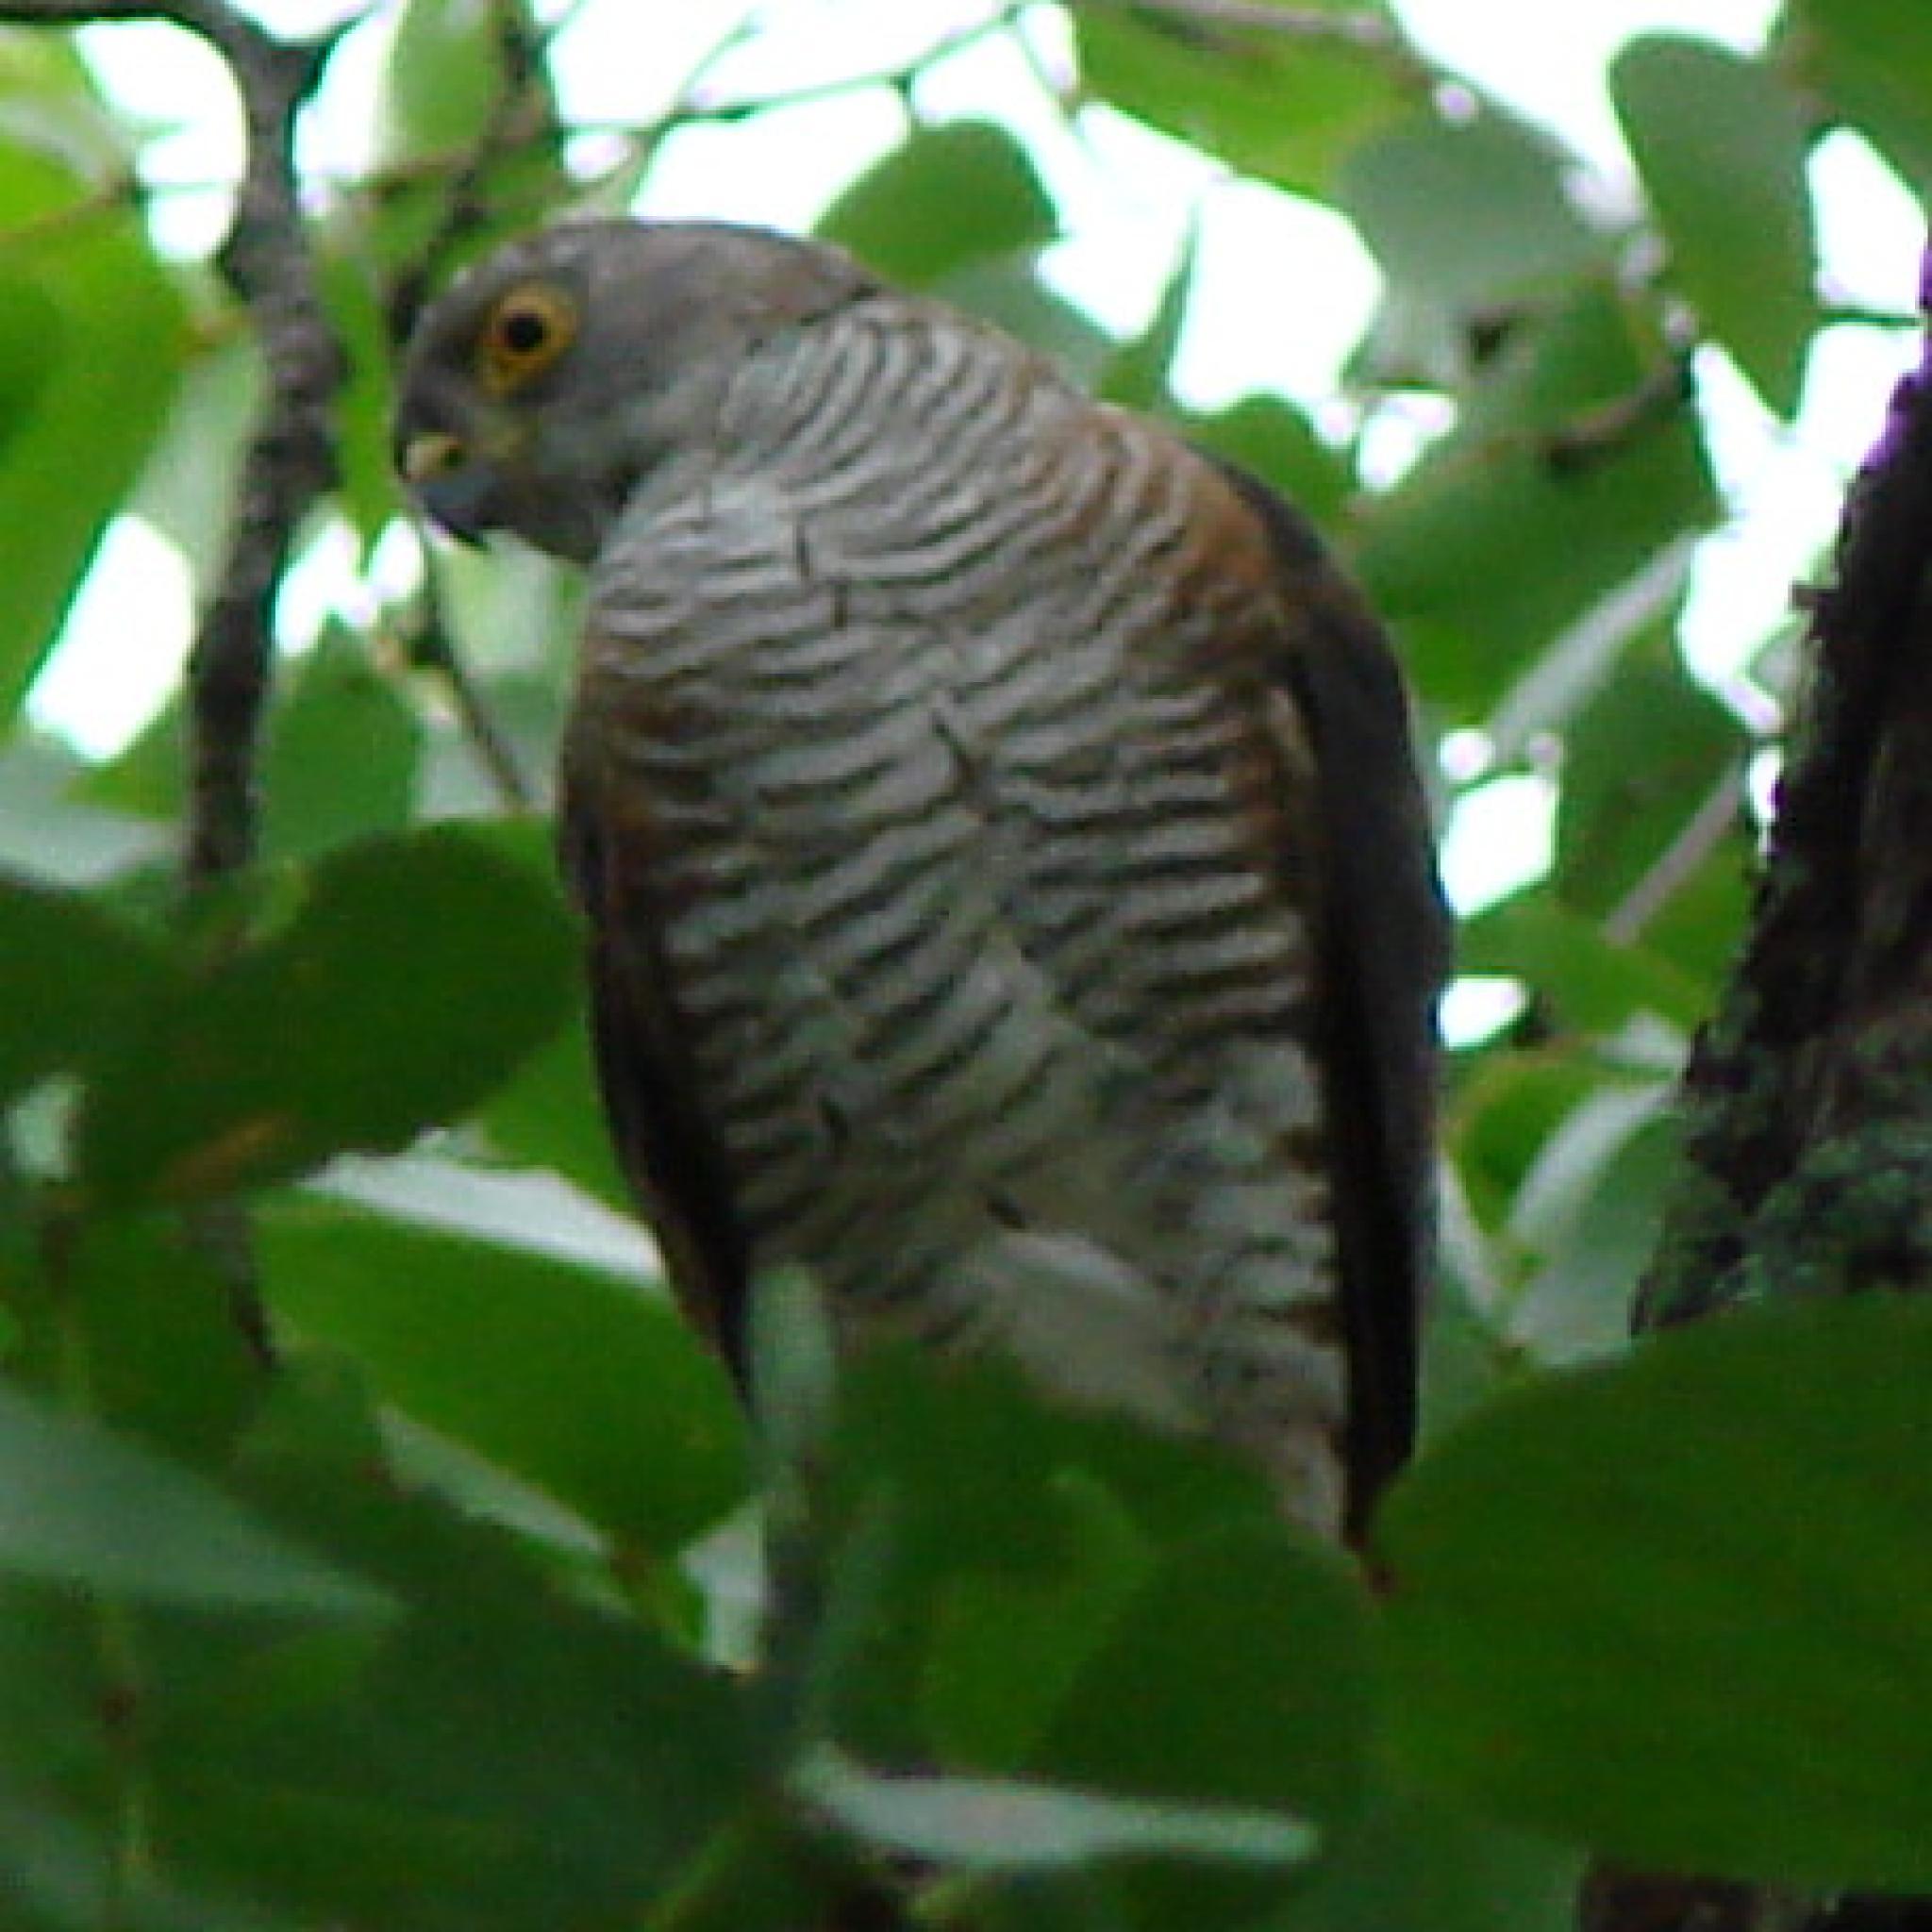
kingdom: Animalia
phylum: Chordata
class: Aves
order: Accipitriformes
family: Accipitridae
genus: Accipiter
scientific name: Accipiter minullus
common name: Little sparrowhawk
